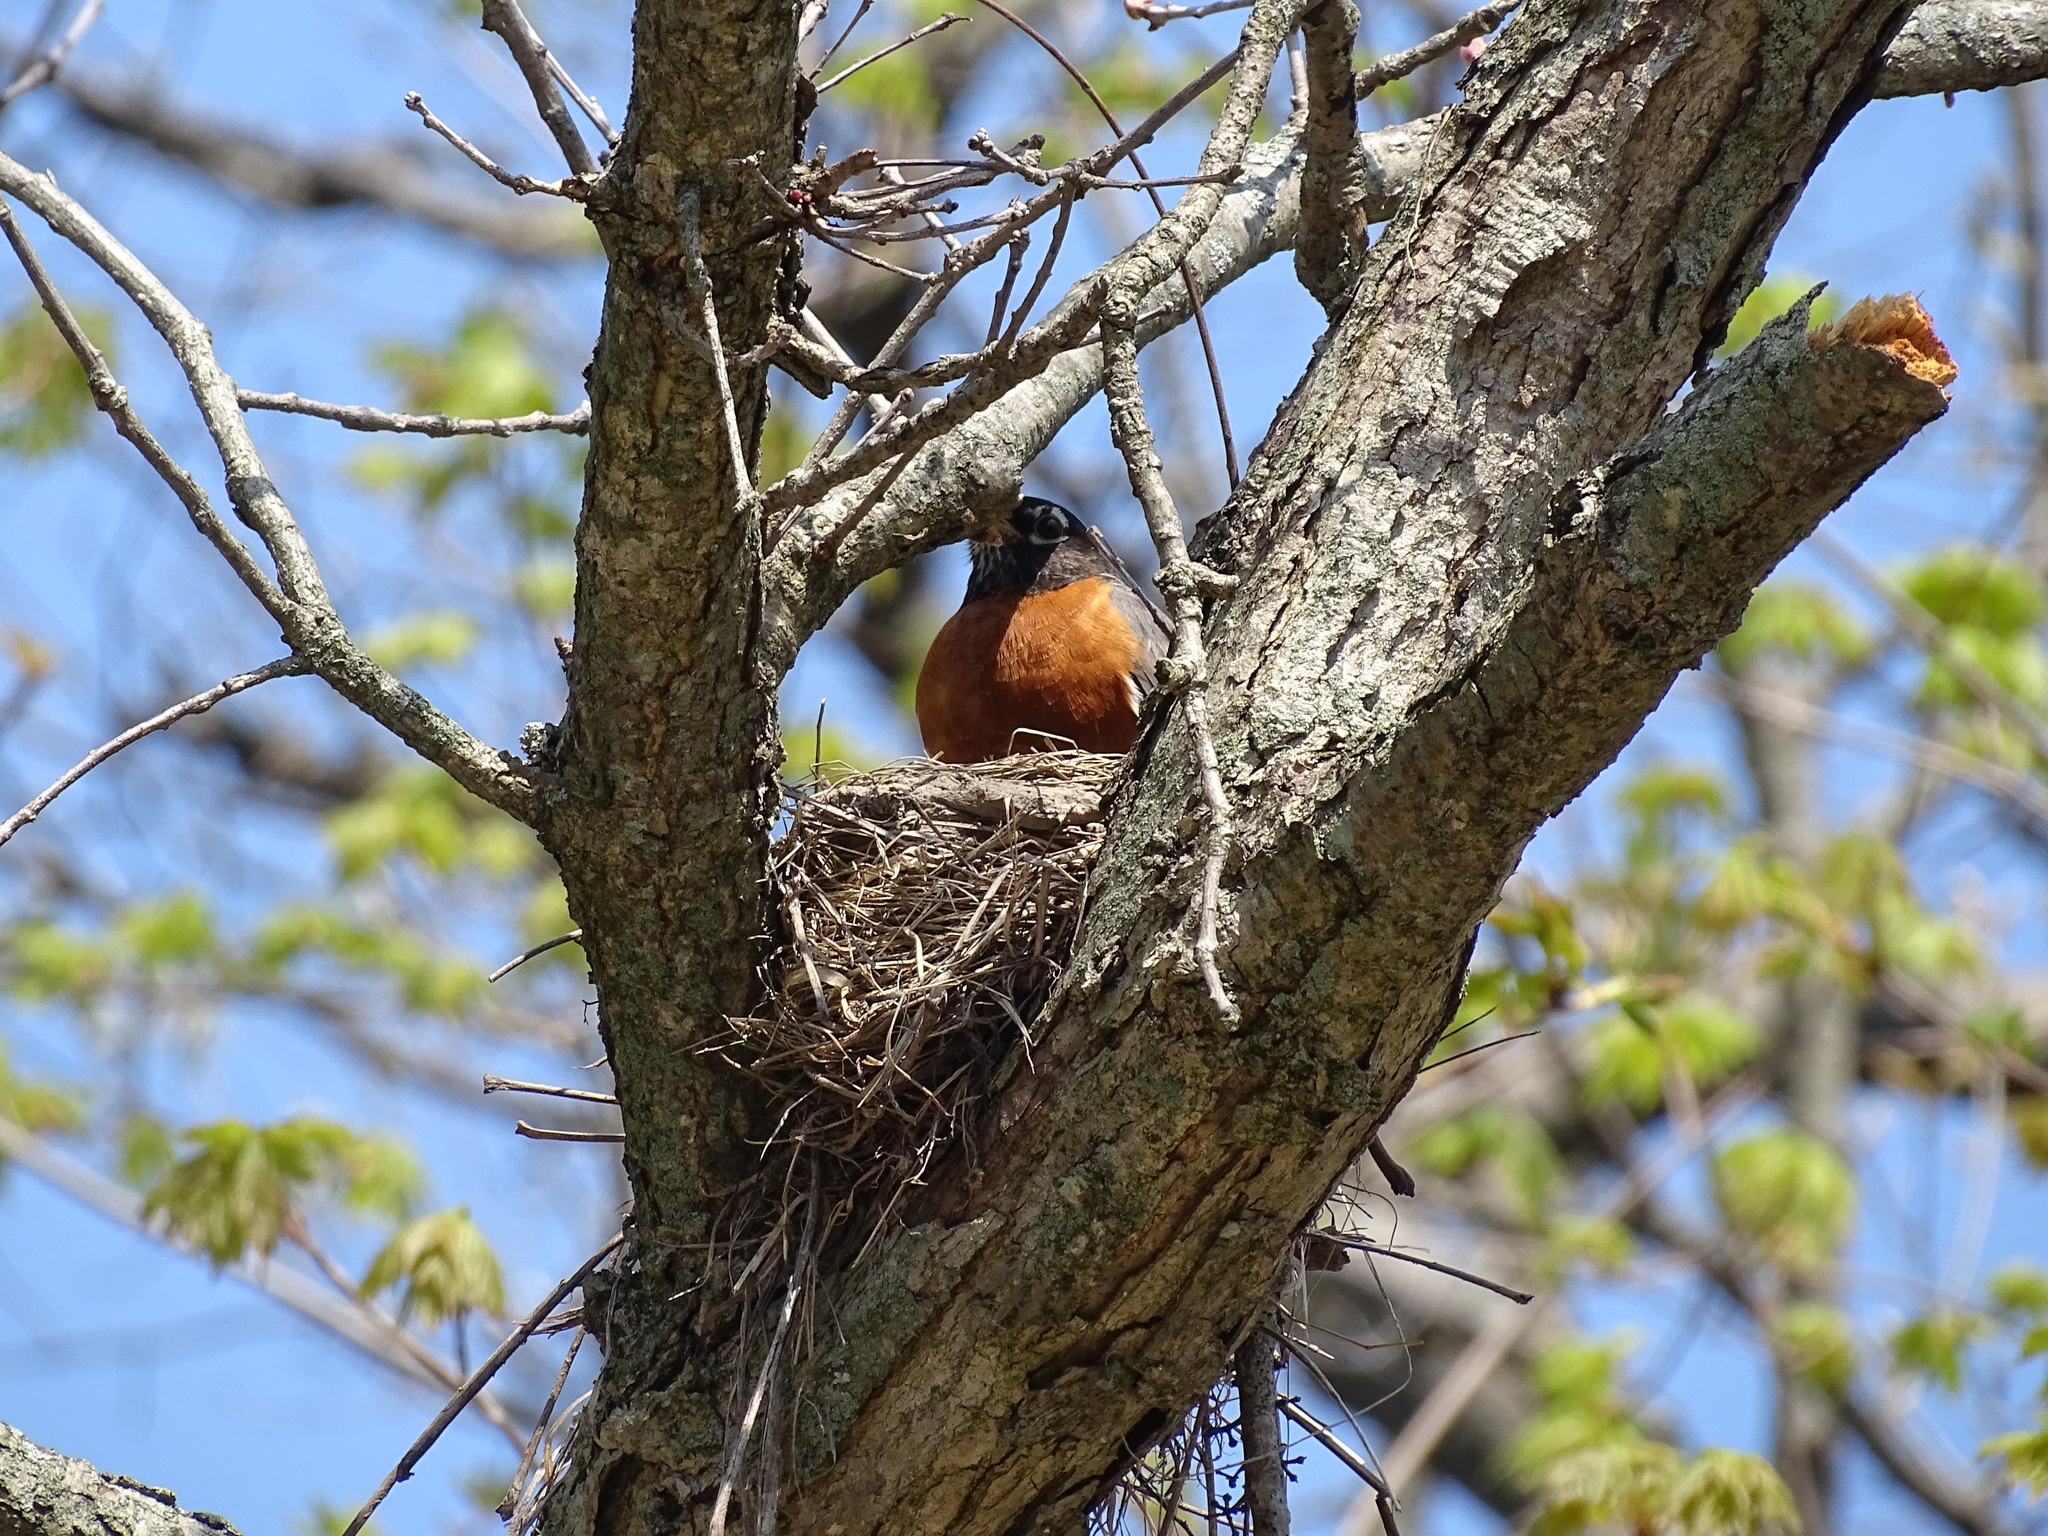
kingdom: Animalia
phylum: Chordata
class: Aves
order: Passeriformes
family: Turdidae
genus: Turdus
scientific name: Turdus migratorius
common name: American robin
